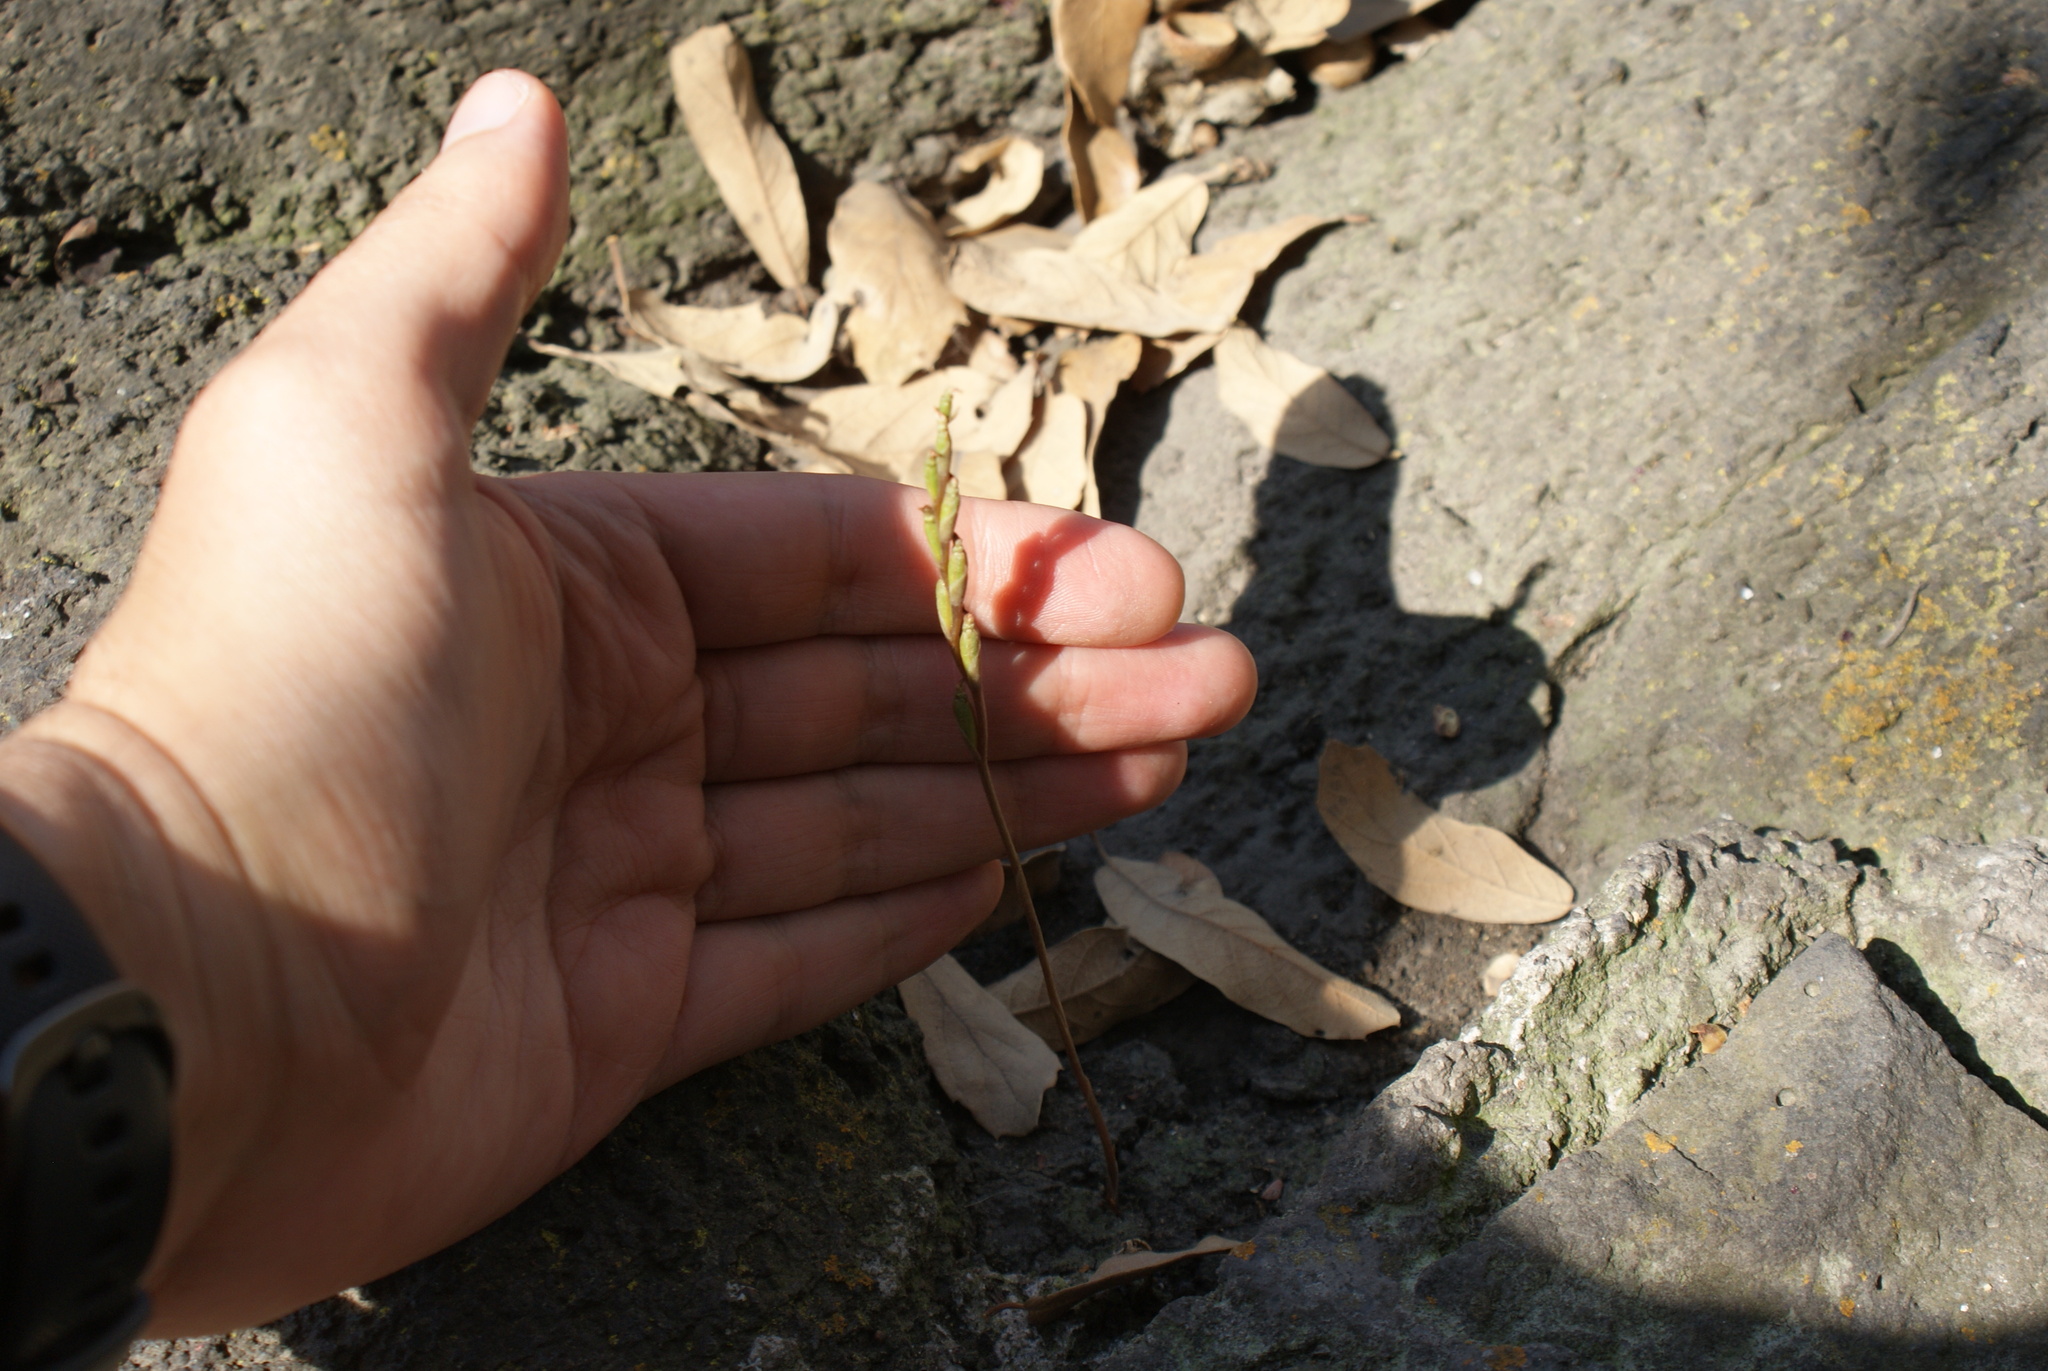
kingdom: Plantae
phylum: Tracheophyta
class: Liliopsida
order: Asparagales
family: Orchidaceae
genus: Microthelys
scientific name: Microthelys minutiflora
